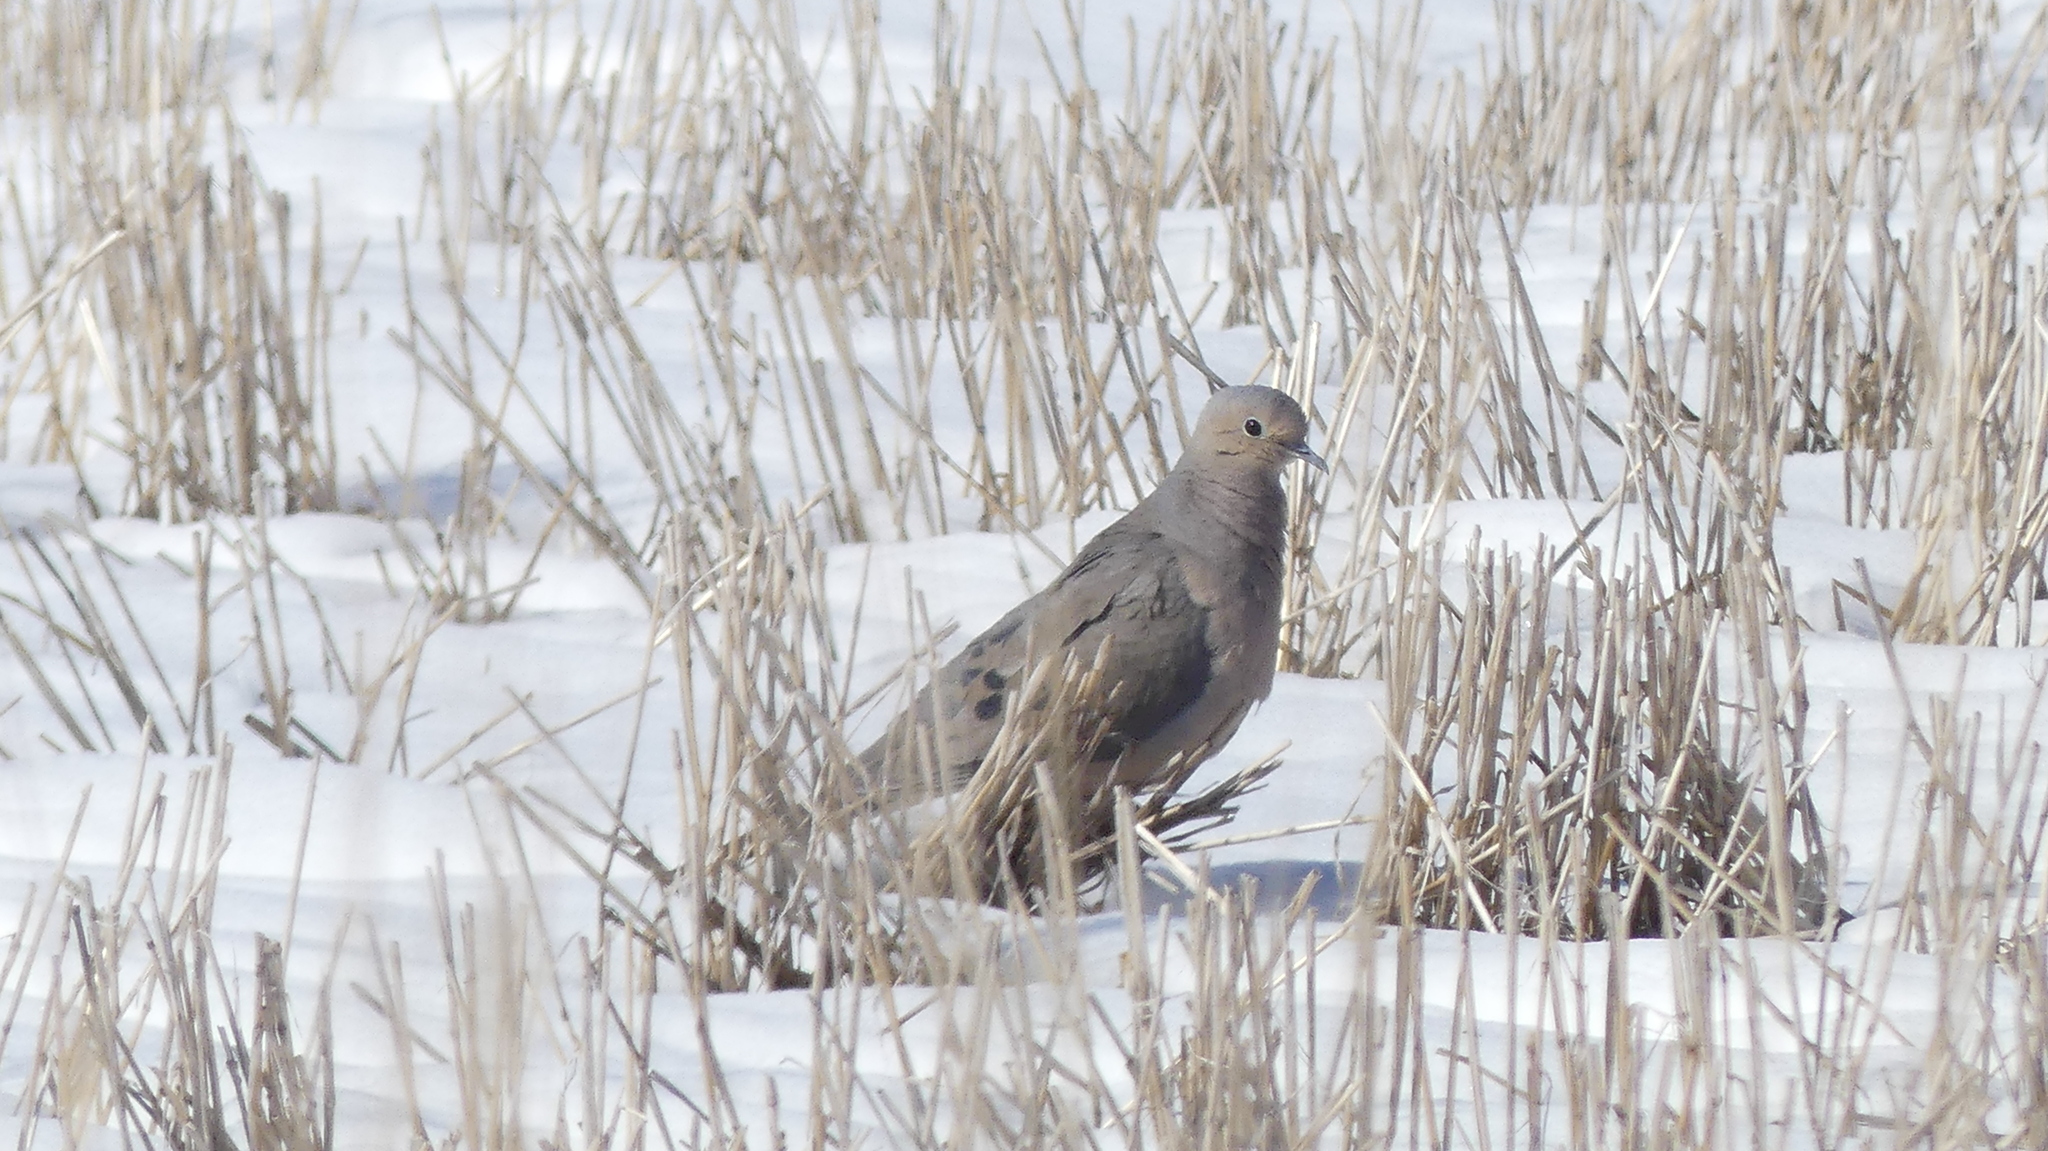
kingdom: Animalia
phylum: Chordata
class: Aves
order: Columbiformes
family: Columbidae
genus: Zenaida
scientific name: Zenaida macroura
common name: Mourning dove
